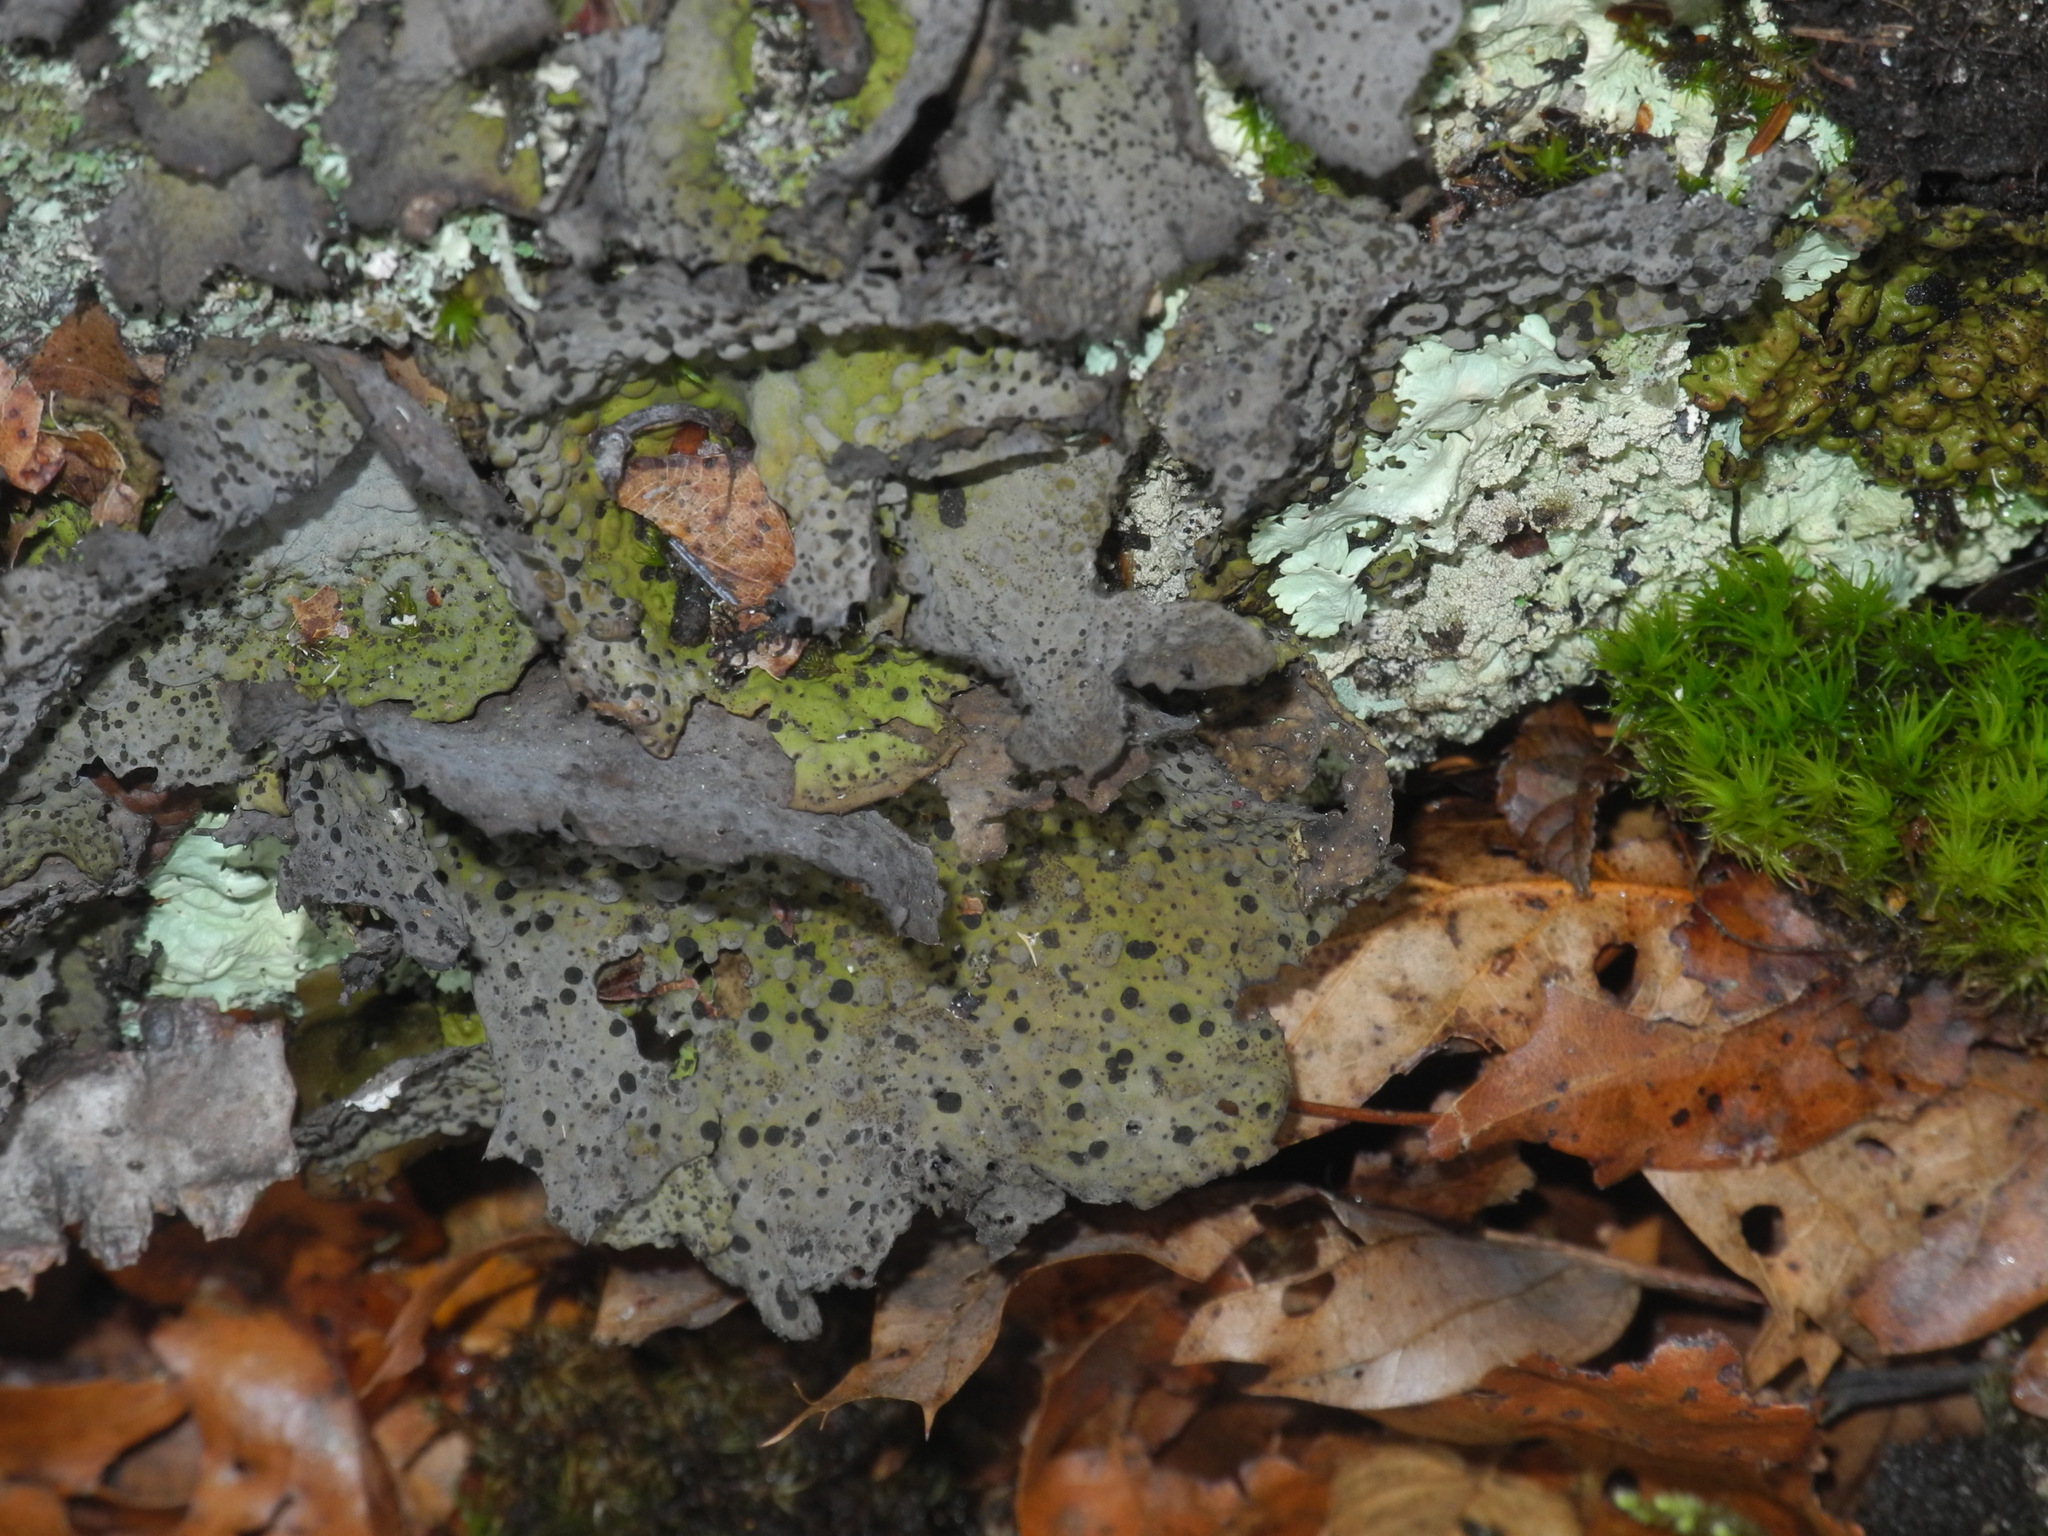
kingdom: Fungi
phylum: Ascomycota
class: Lecanoromycetes
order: Umbilicariales
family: Umbilicariaceae
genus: Lasallia
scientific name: Lasallia papulosa
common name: Common toadskin lichen
